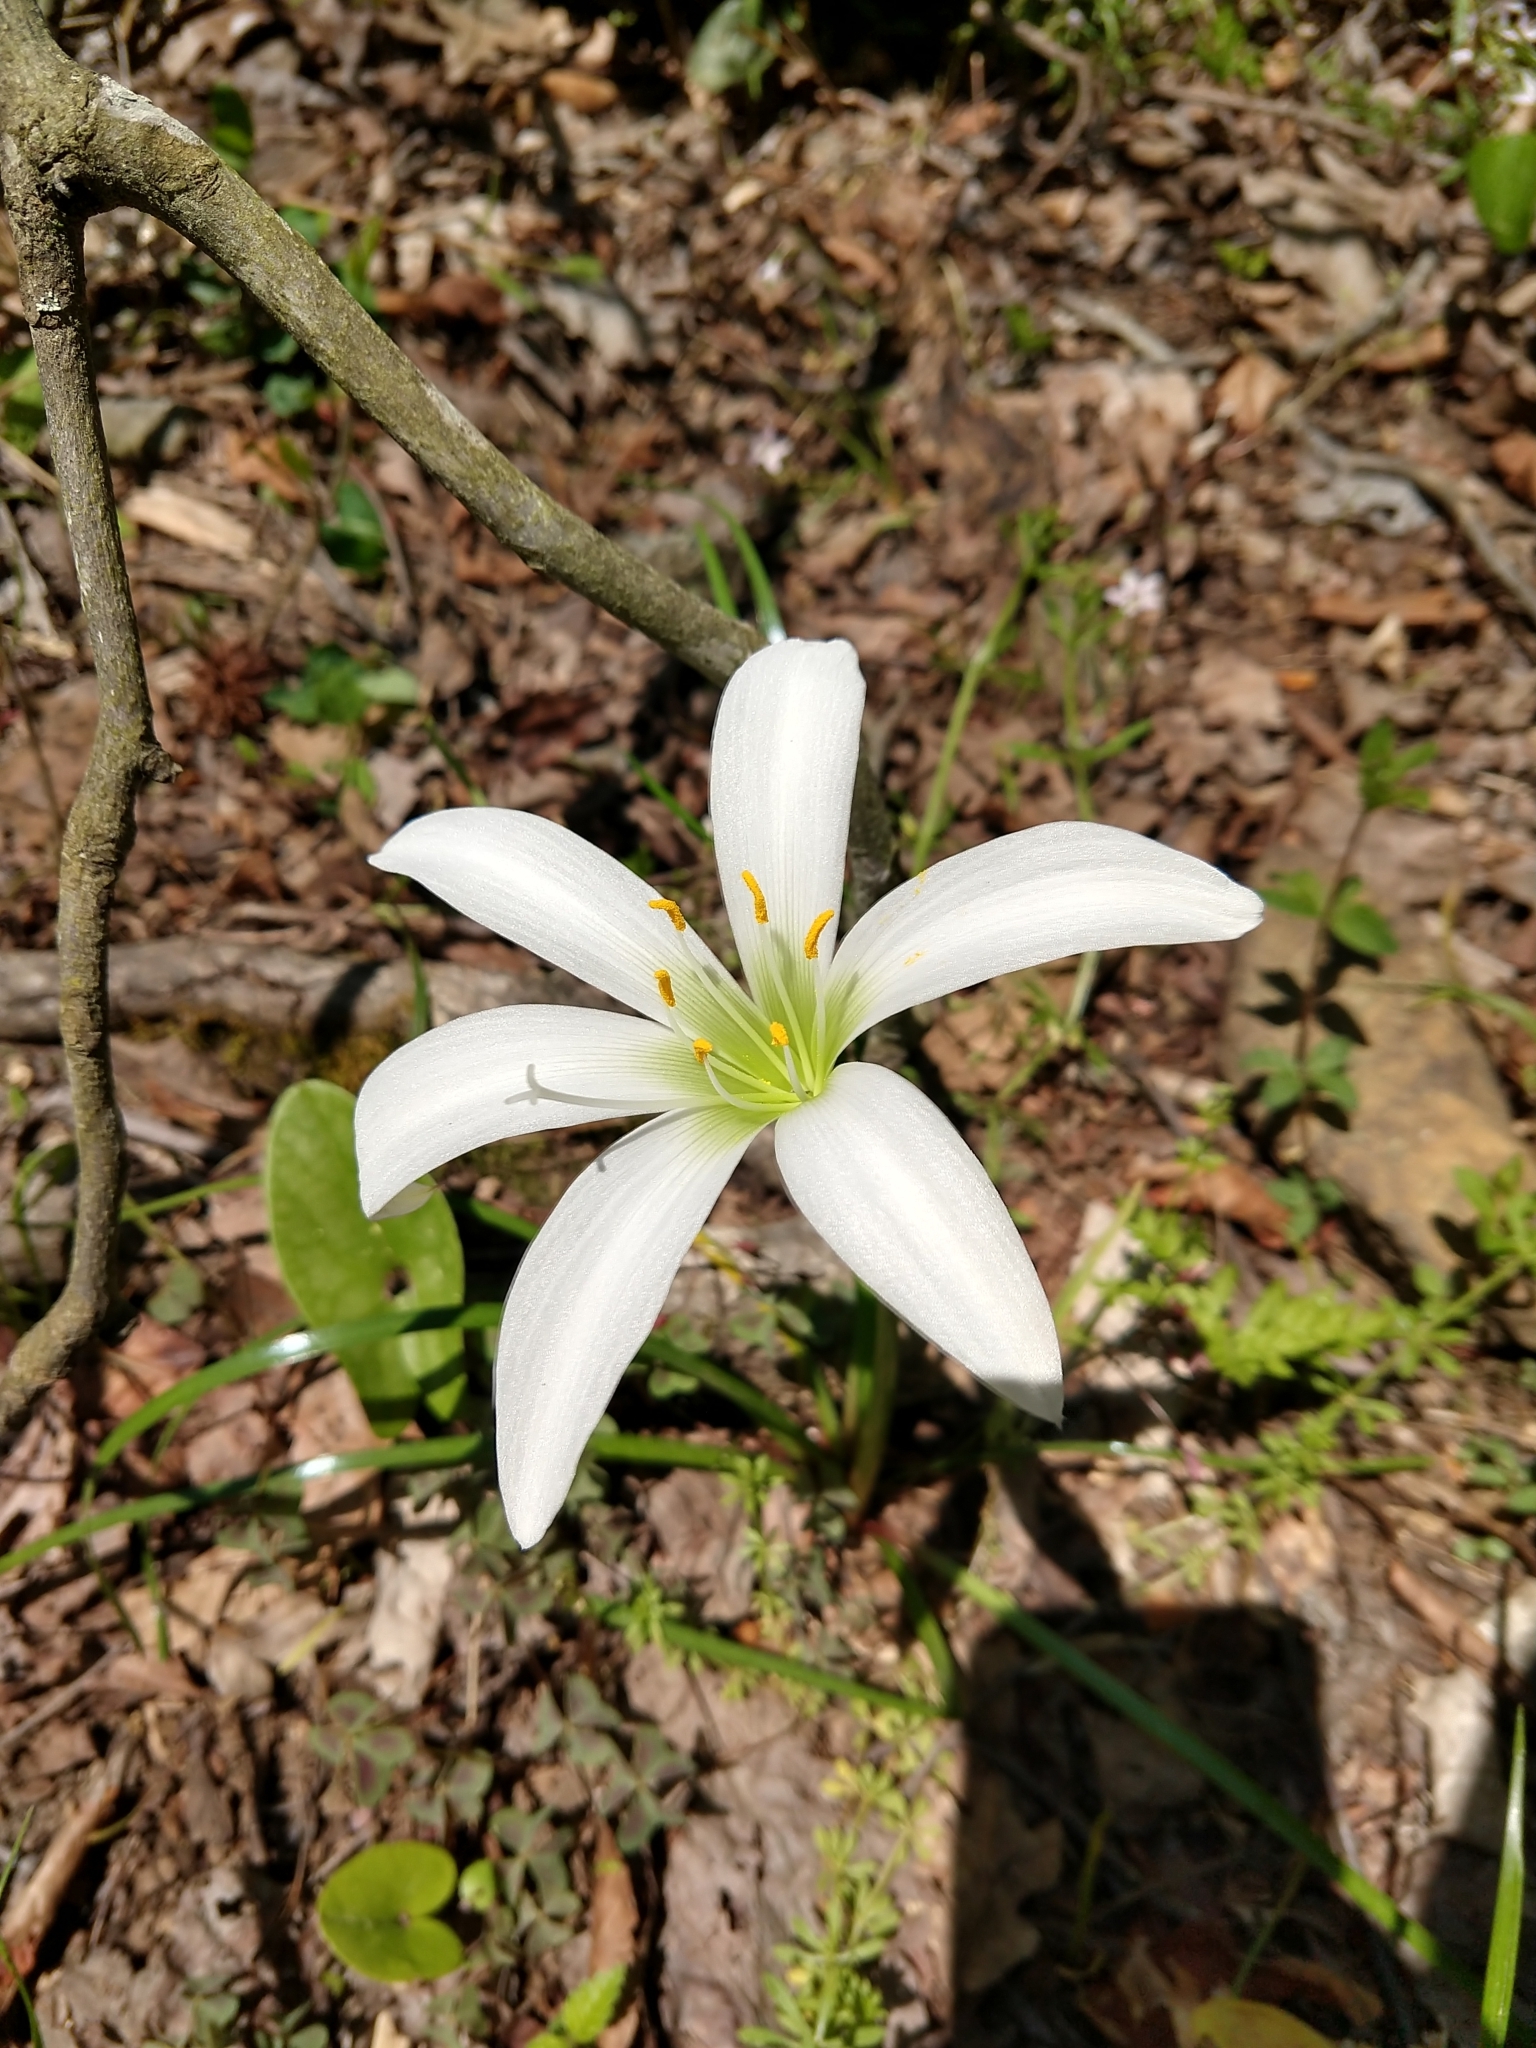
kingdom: Plantae
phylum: Tracheophyta
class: Liliopsida
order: Asparagales
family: Amaryllidaceae
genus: Zephyranthes
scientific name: Zephyranthes atamasco
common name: Atamasco lily
